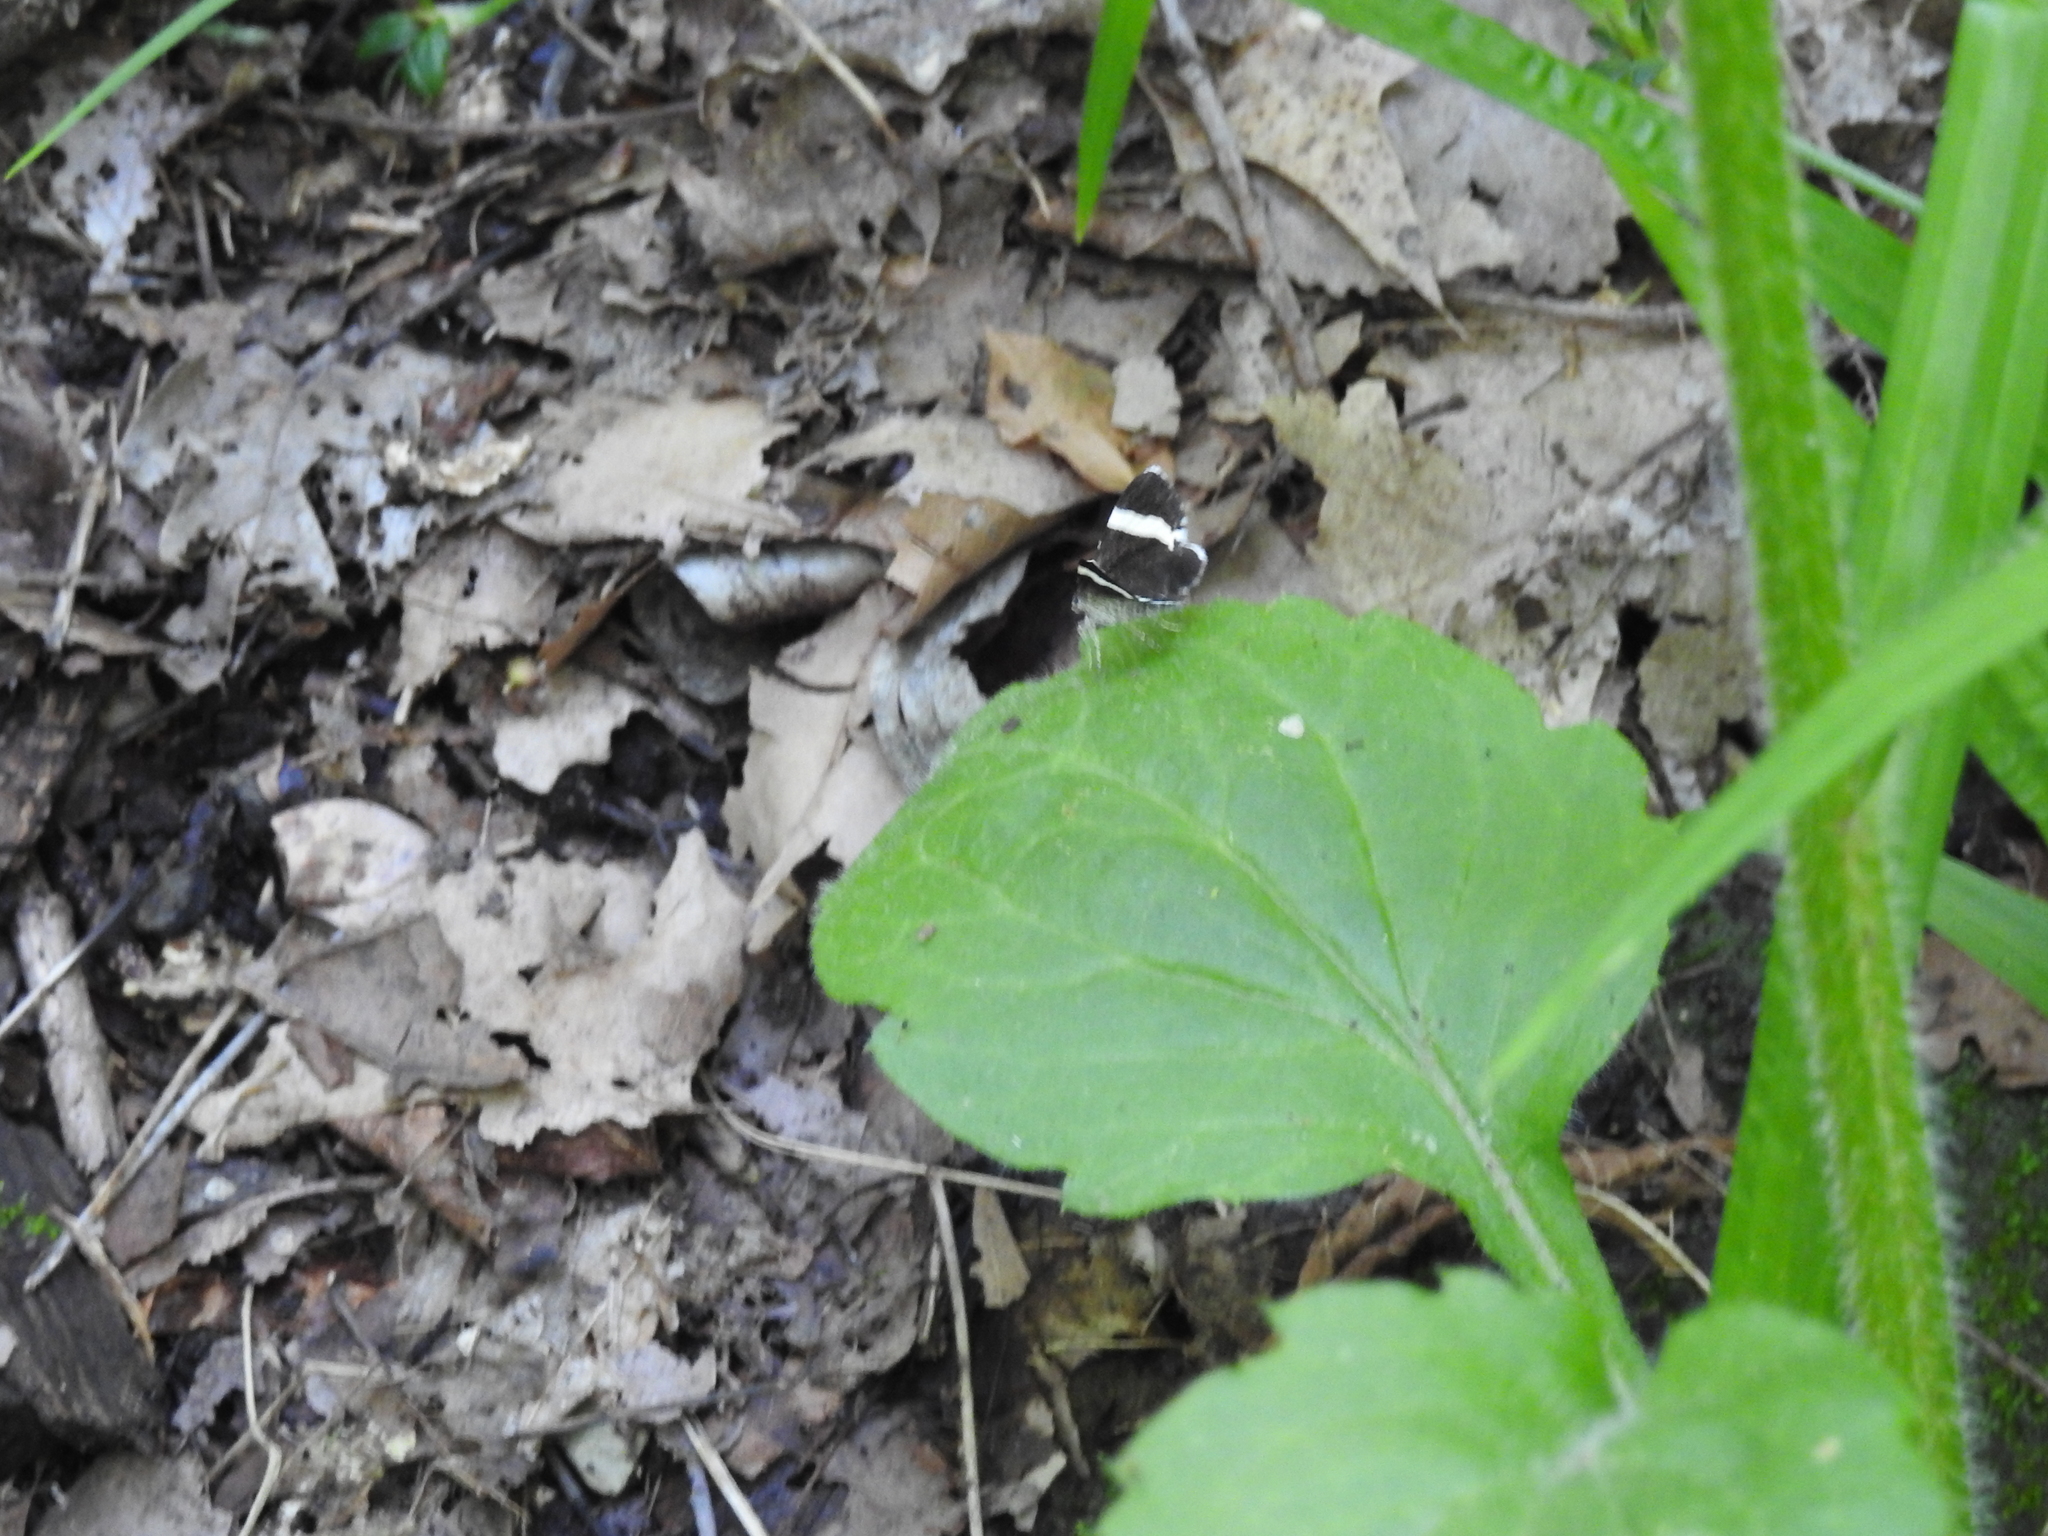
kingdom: Animalia
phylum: Arthropoda
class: Insecta
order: Lepidoptera
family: Geometridae
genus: Trichodezia
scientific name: Trichodezia albovittata
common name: White striped black
